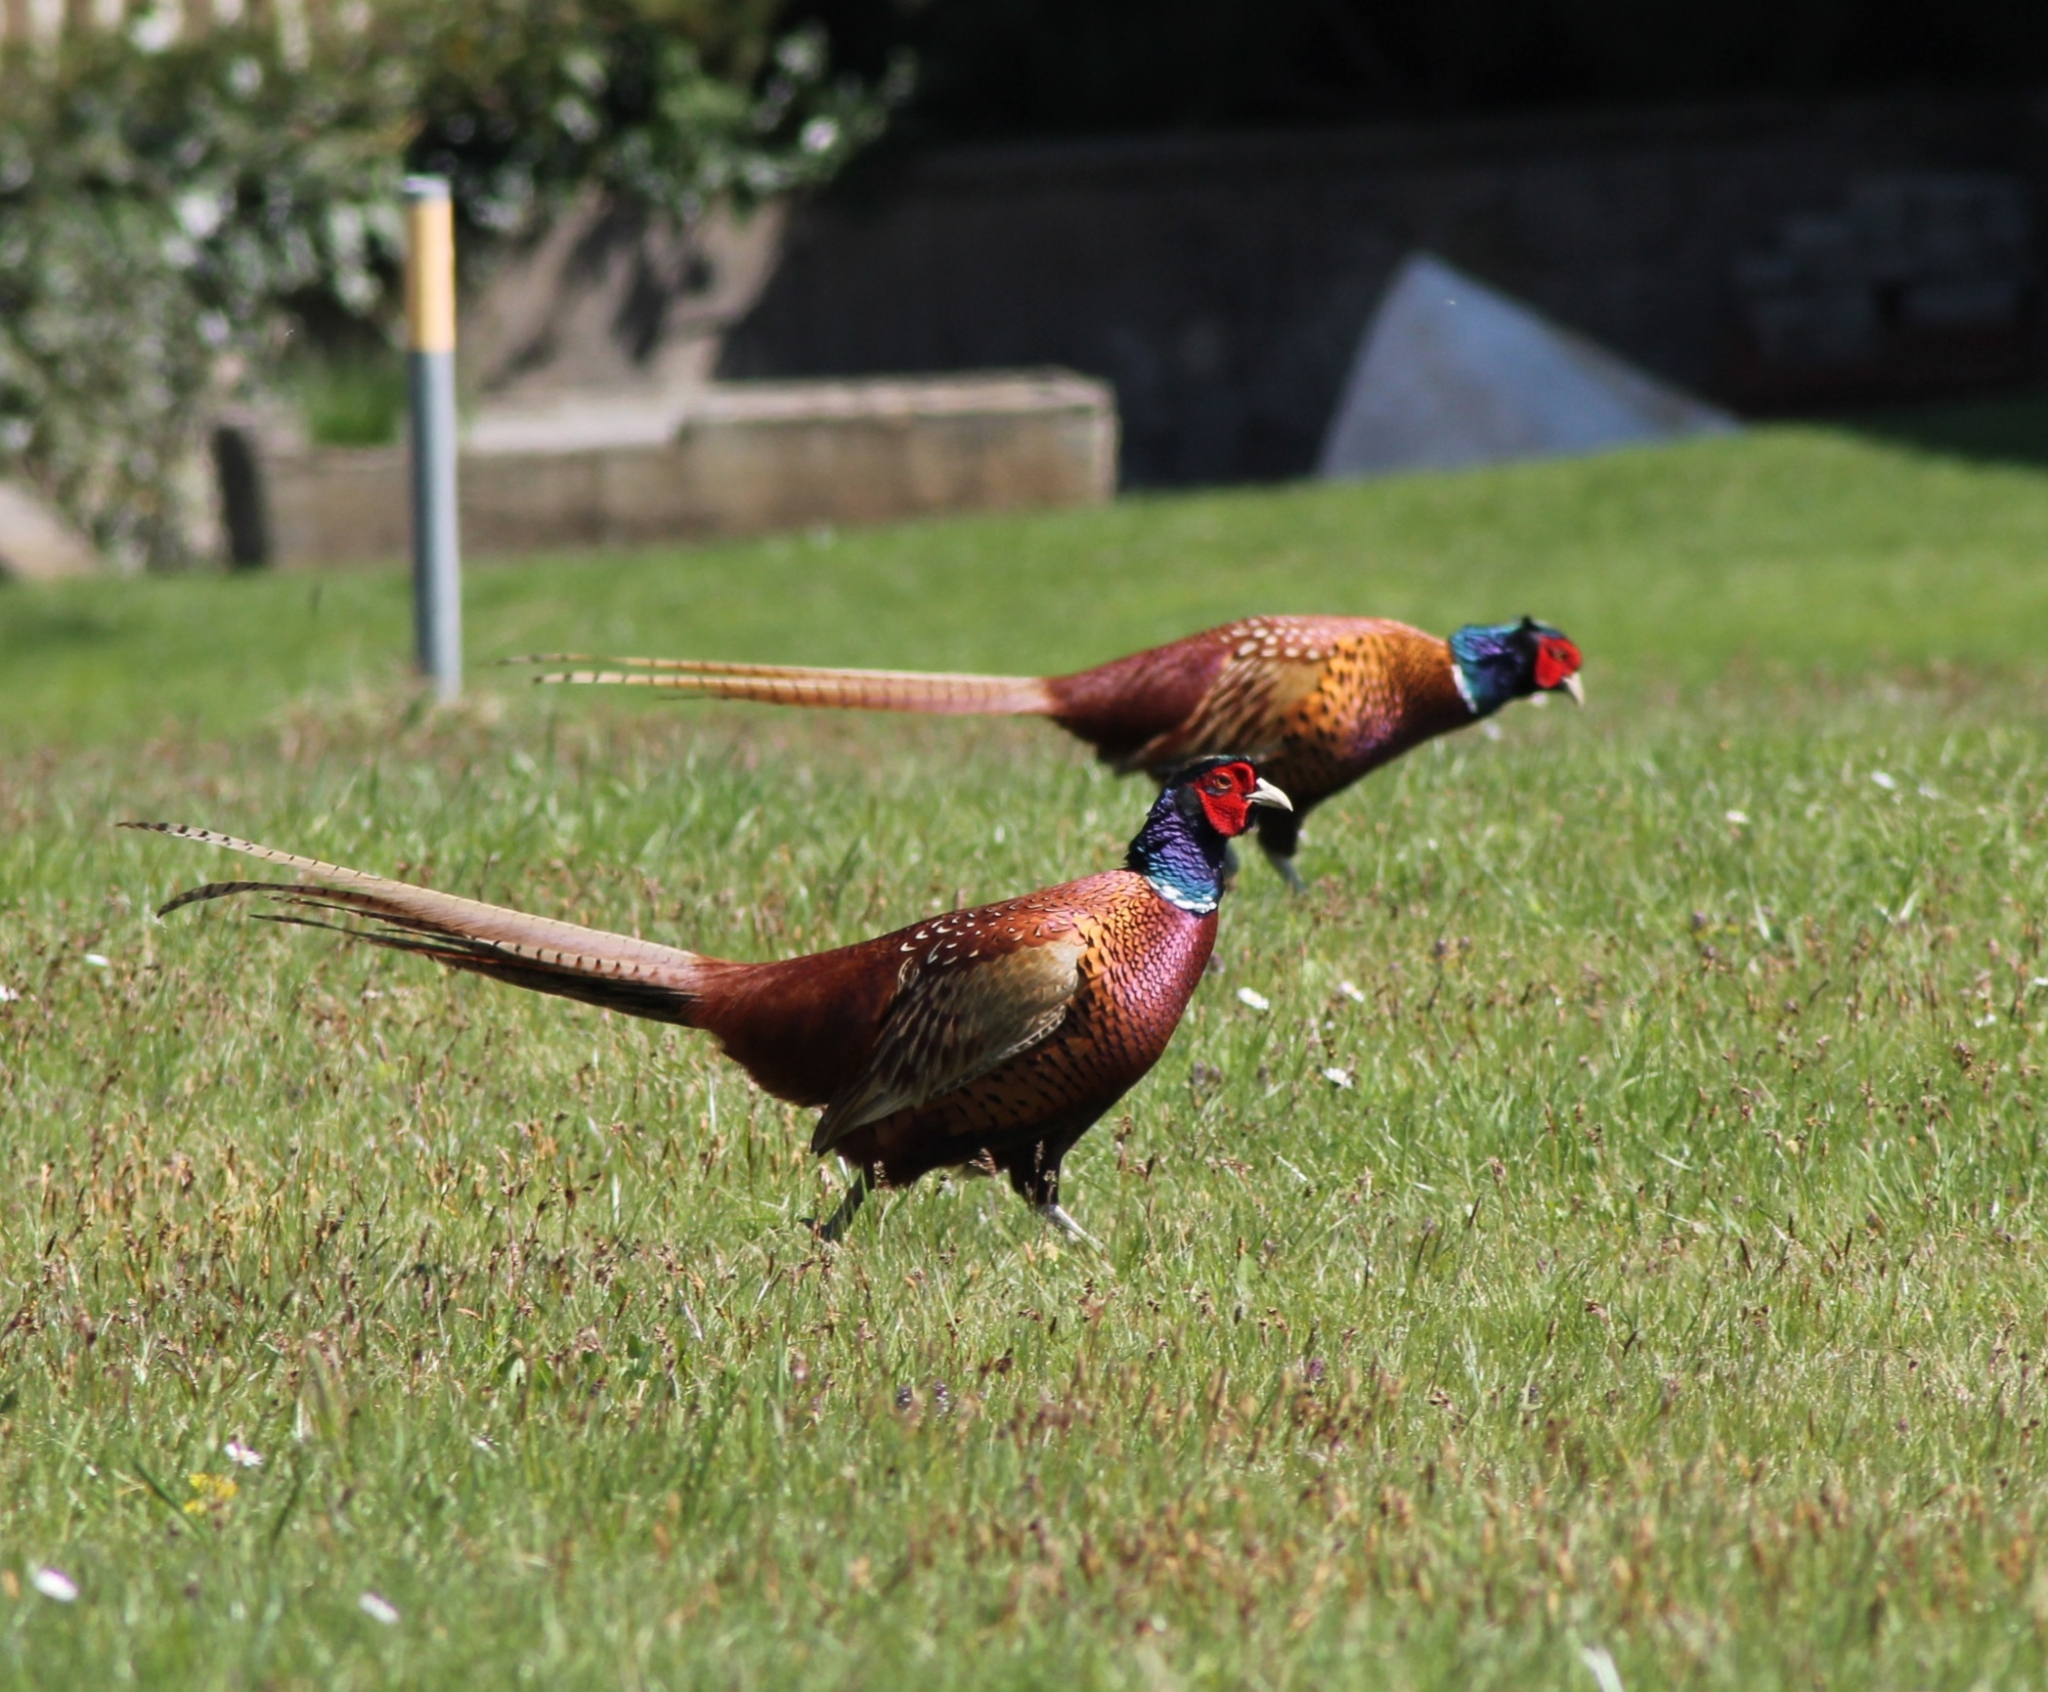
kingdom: Animalia
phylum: Chordata
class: Aves
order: Galliformes
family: Phasianidae
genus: Phasianus
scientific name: Phasianus colchicus
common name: Common pheasant
